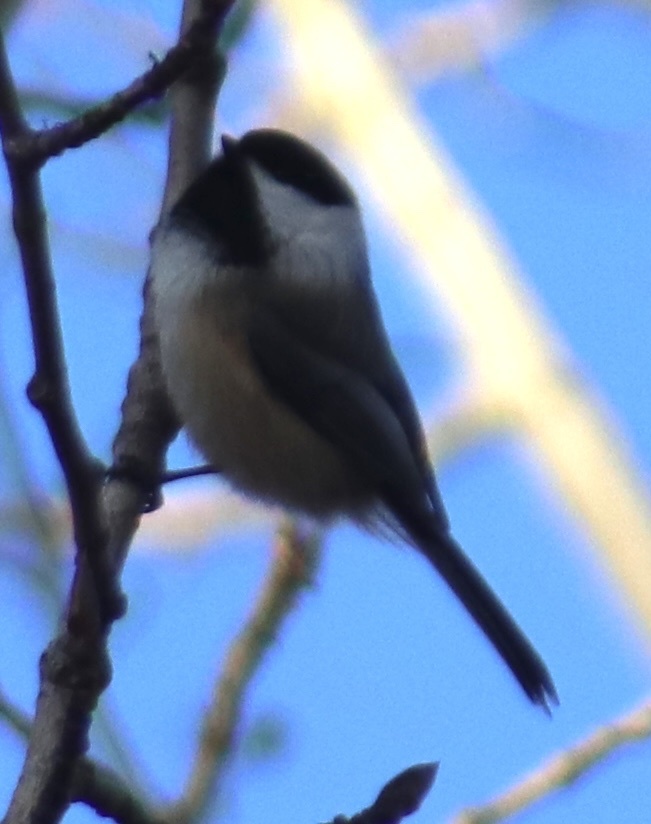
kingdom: Animalia
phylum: Chordata
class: Aves
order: Passeriformes
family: Paridae
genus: Poecile
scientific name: Poecile atricapillus
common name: Black-capped chickadee
